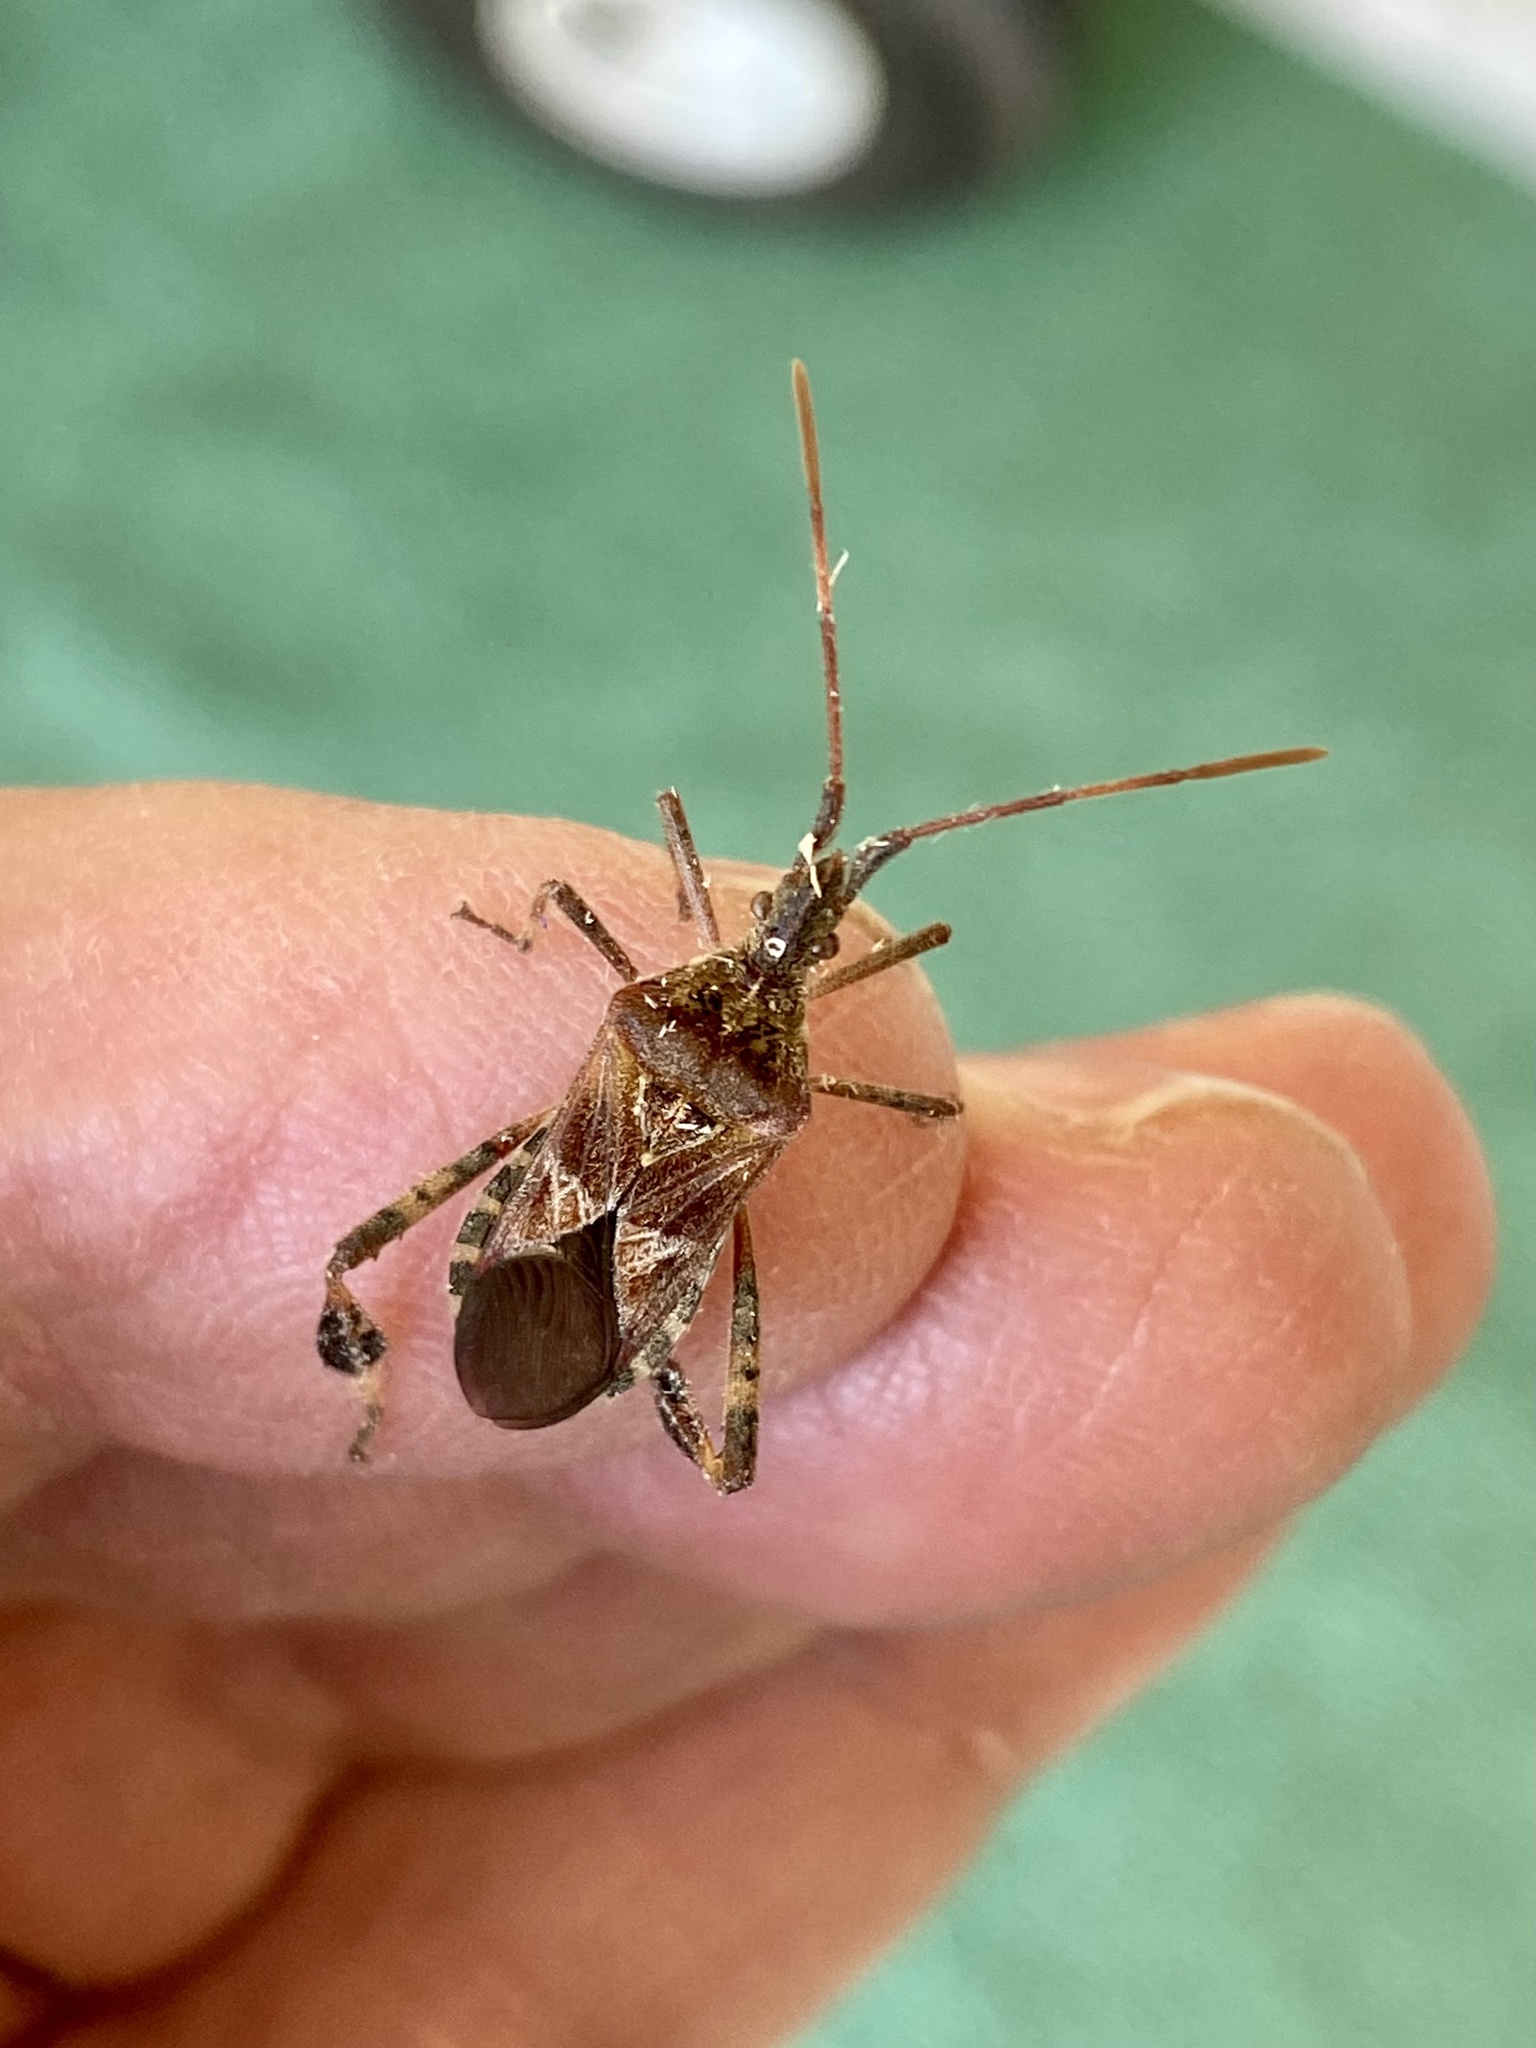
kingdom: Animalia
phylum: Arthropoda
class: Insecta
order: Hemiptera
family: Coreidae
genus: Leptoglossus
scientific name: Leptoglossus occidentalis
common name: Western conifer-seed bug
